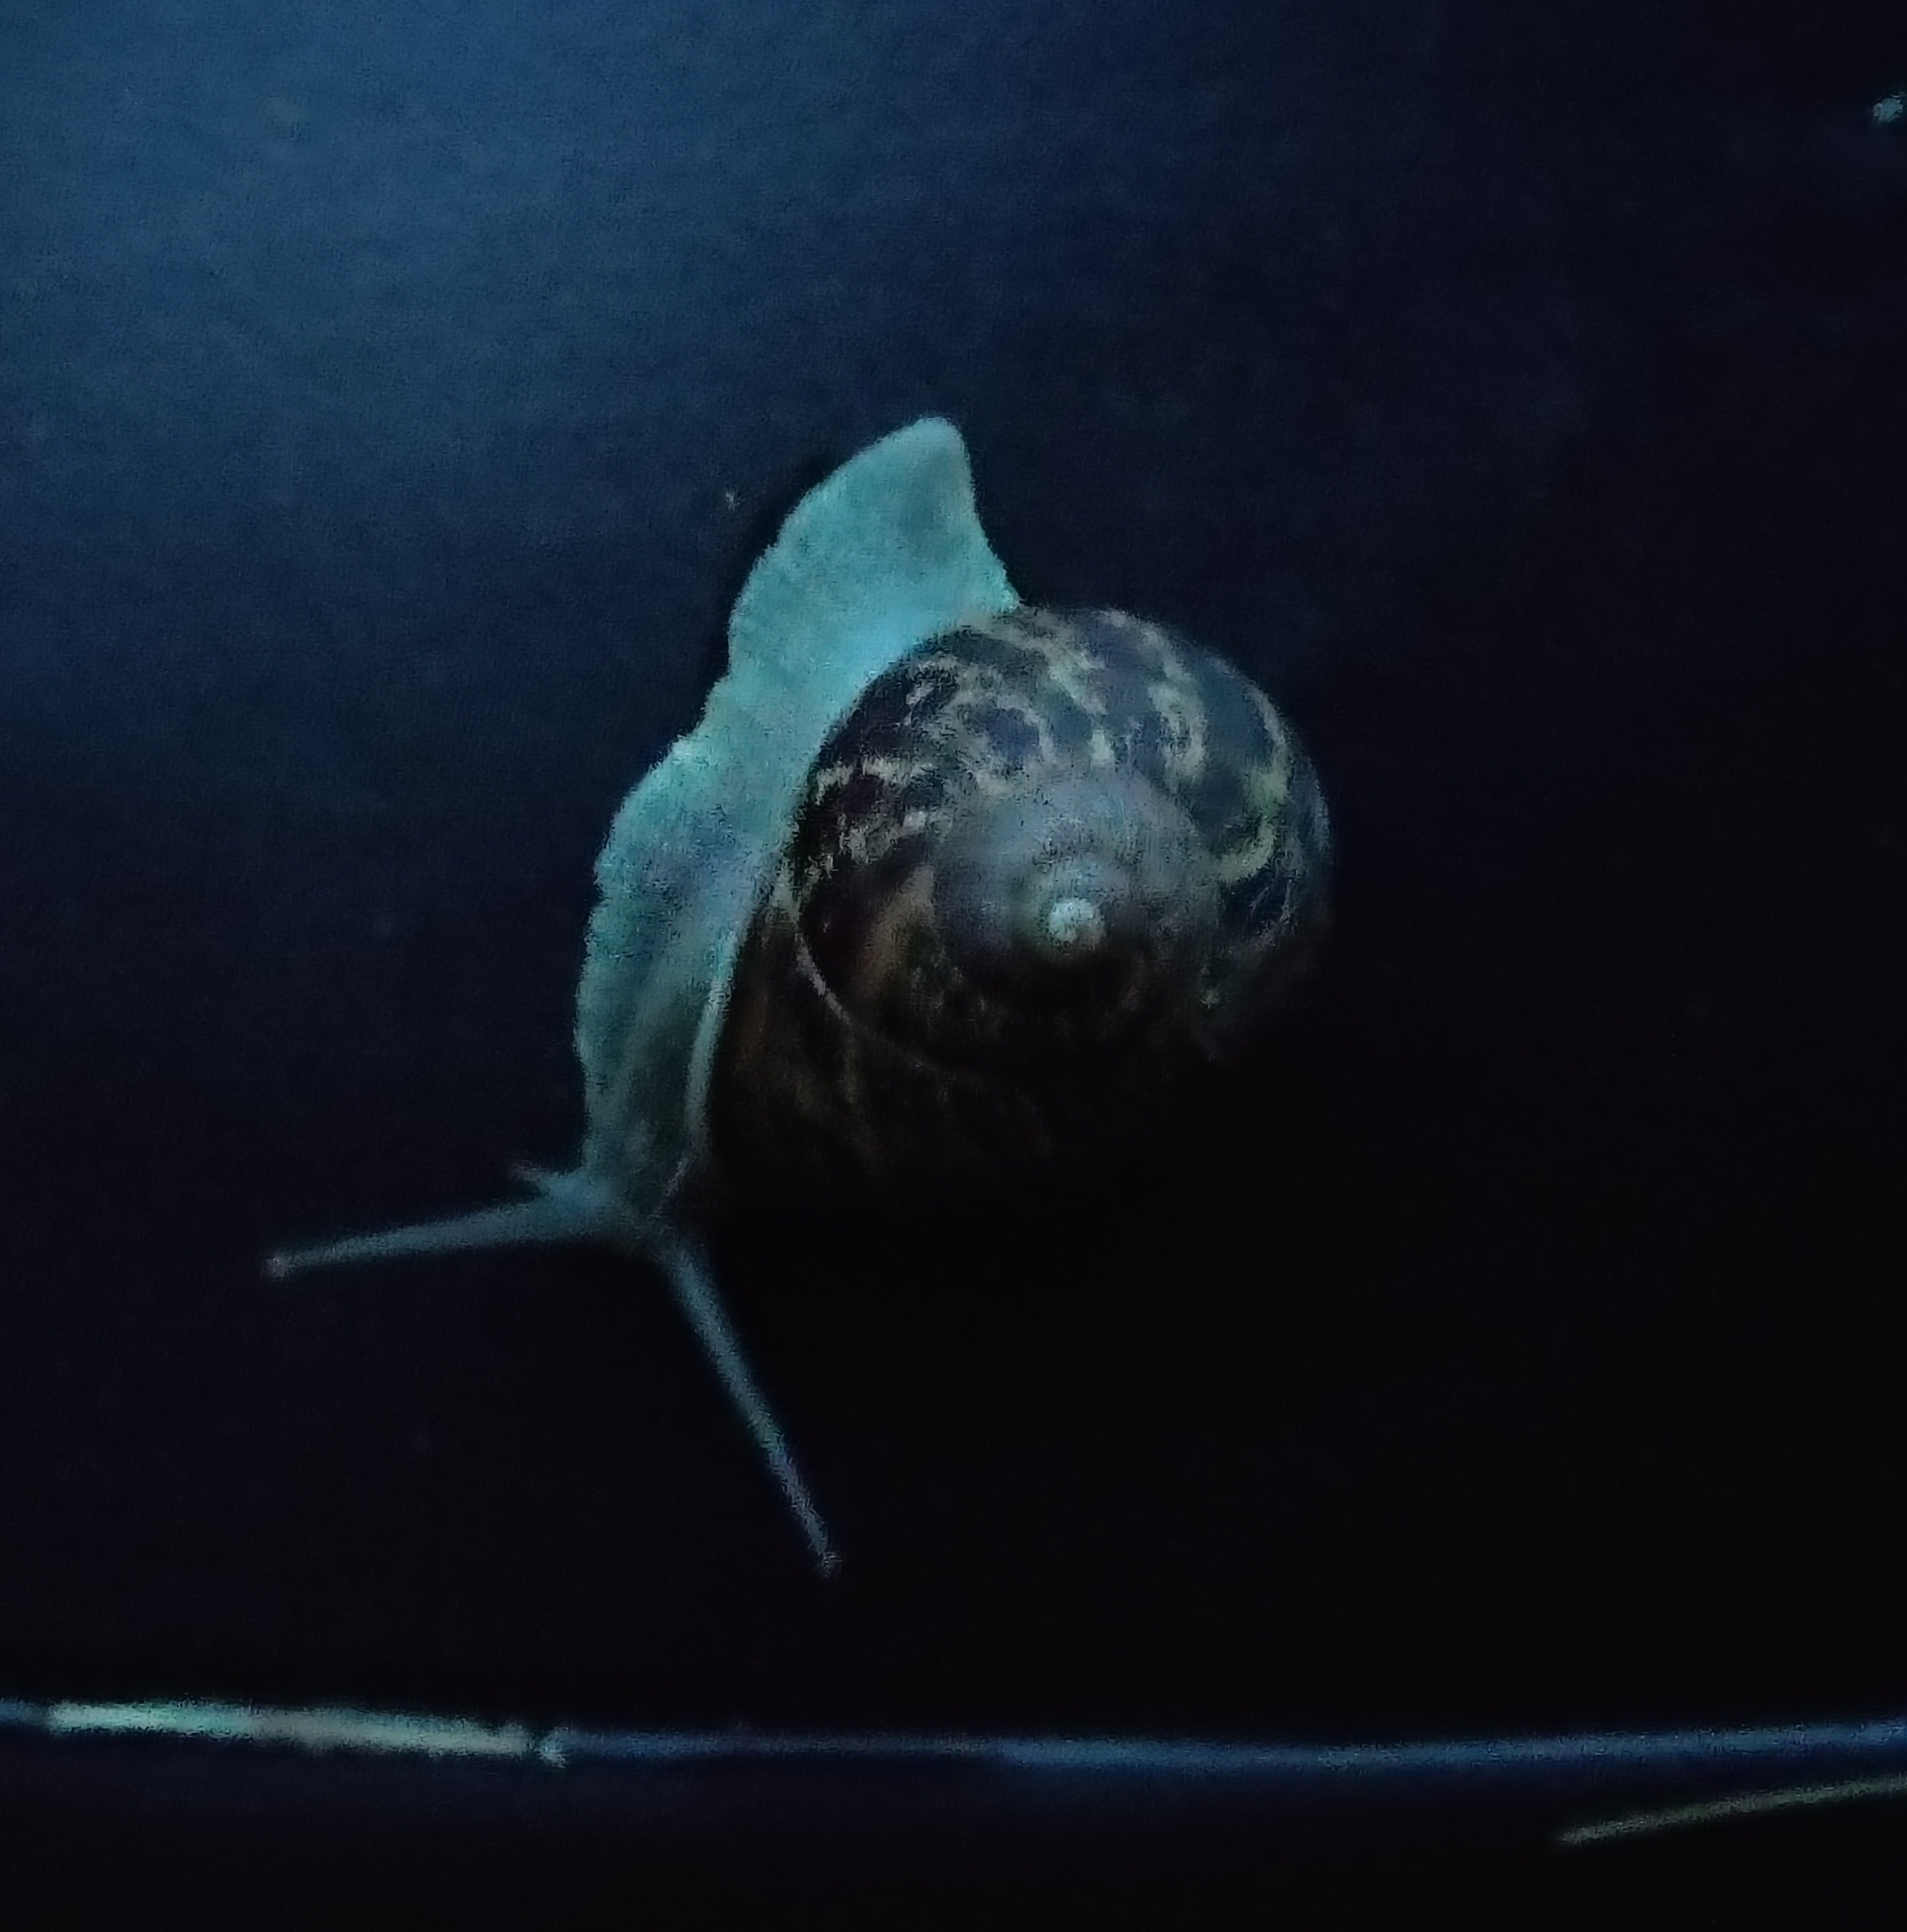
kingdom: Animalia
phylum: Mollusca
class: Gastropoda
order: Stylommatophora
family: Helicidae
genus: Cornu
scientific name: Cornu aspersum
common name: Brown garden snail
